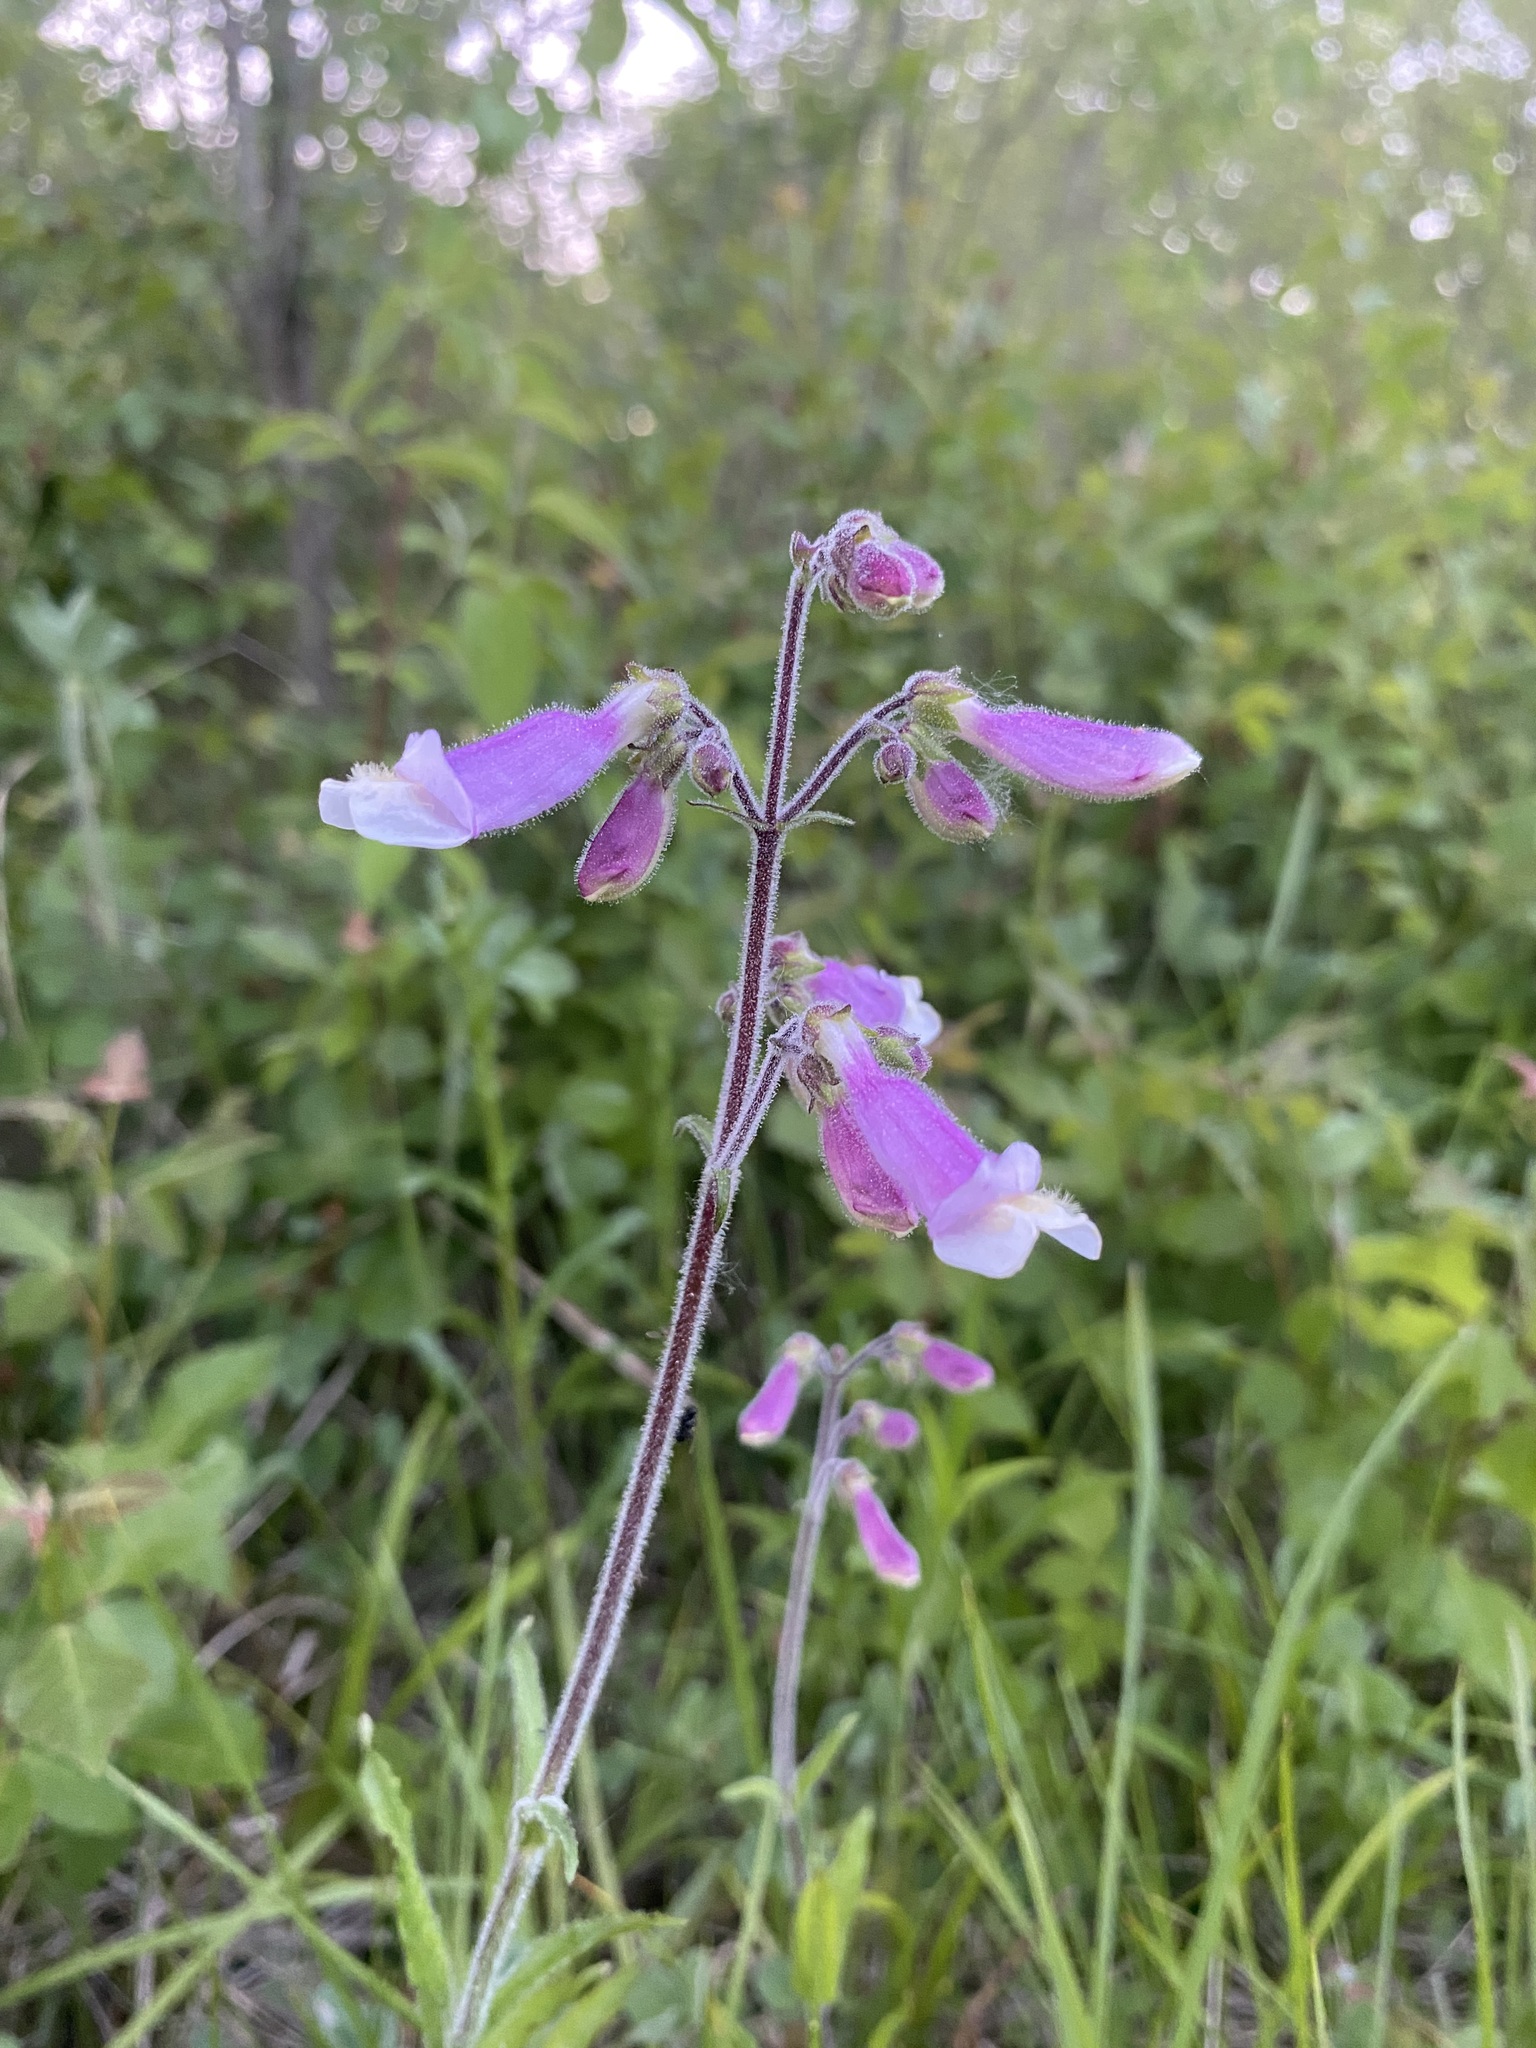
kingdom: Plantae
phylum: Tracheophyta
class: Magnoliopsida
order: Lamiales
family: Plantaginaceae
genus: Penstemon
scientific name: Penstemon hirsutus
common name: Hairy beardtongue
